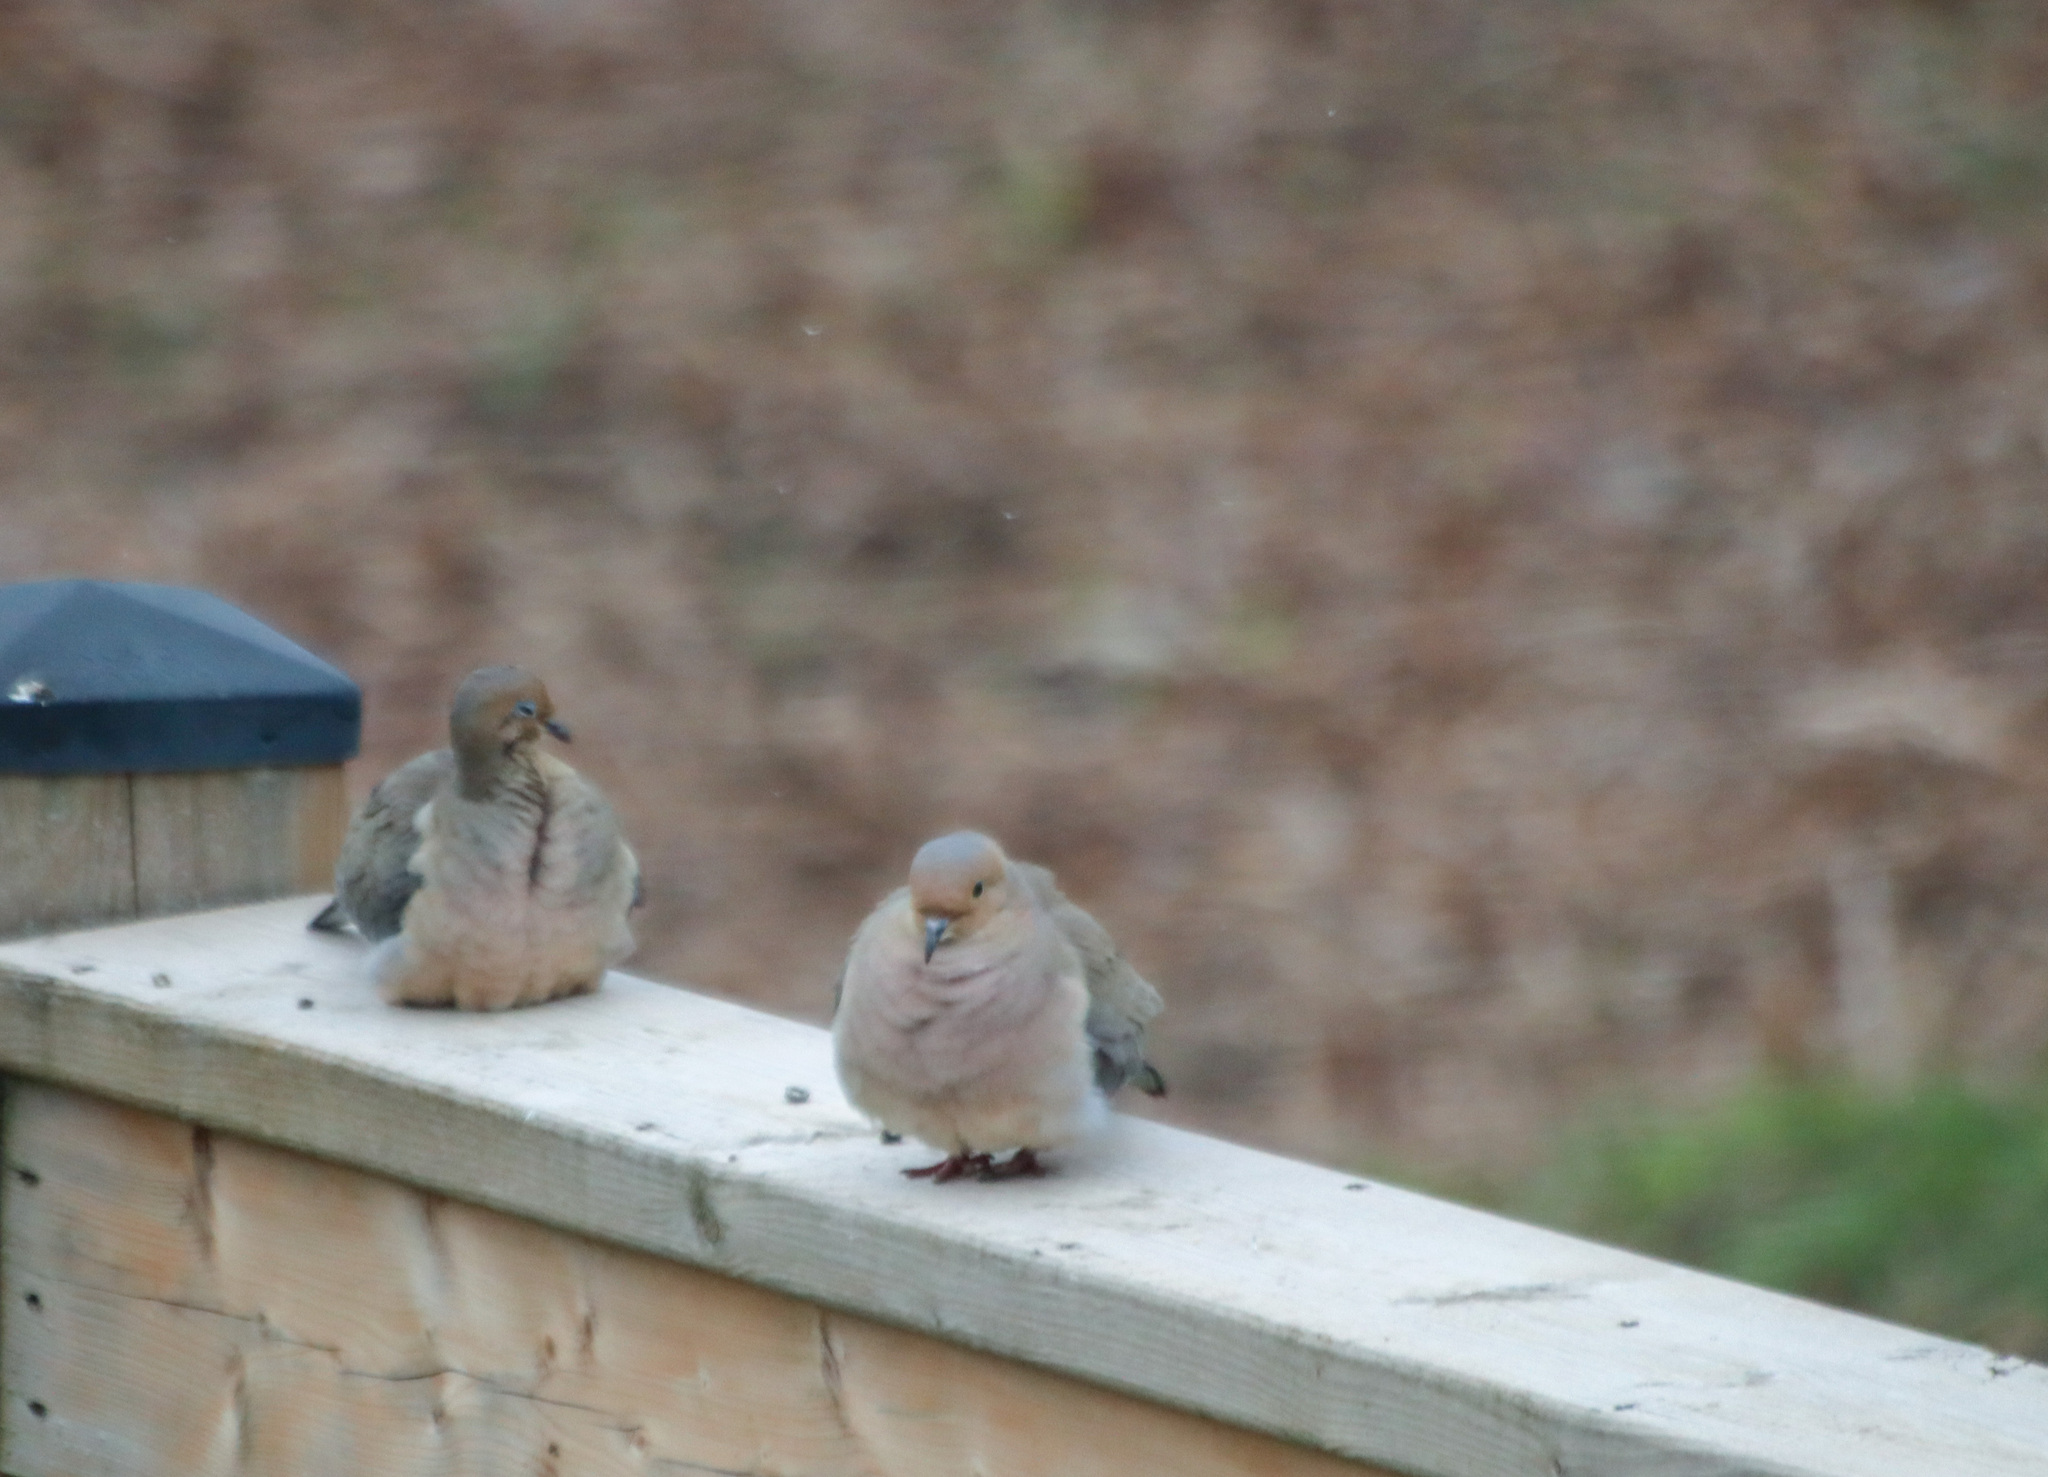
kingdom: Animalia
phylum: Chordata
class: Aves
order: Columbiformes
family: Columbidae
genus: Zenaida
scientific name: Zenaida macroura
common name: Mourning dove
